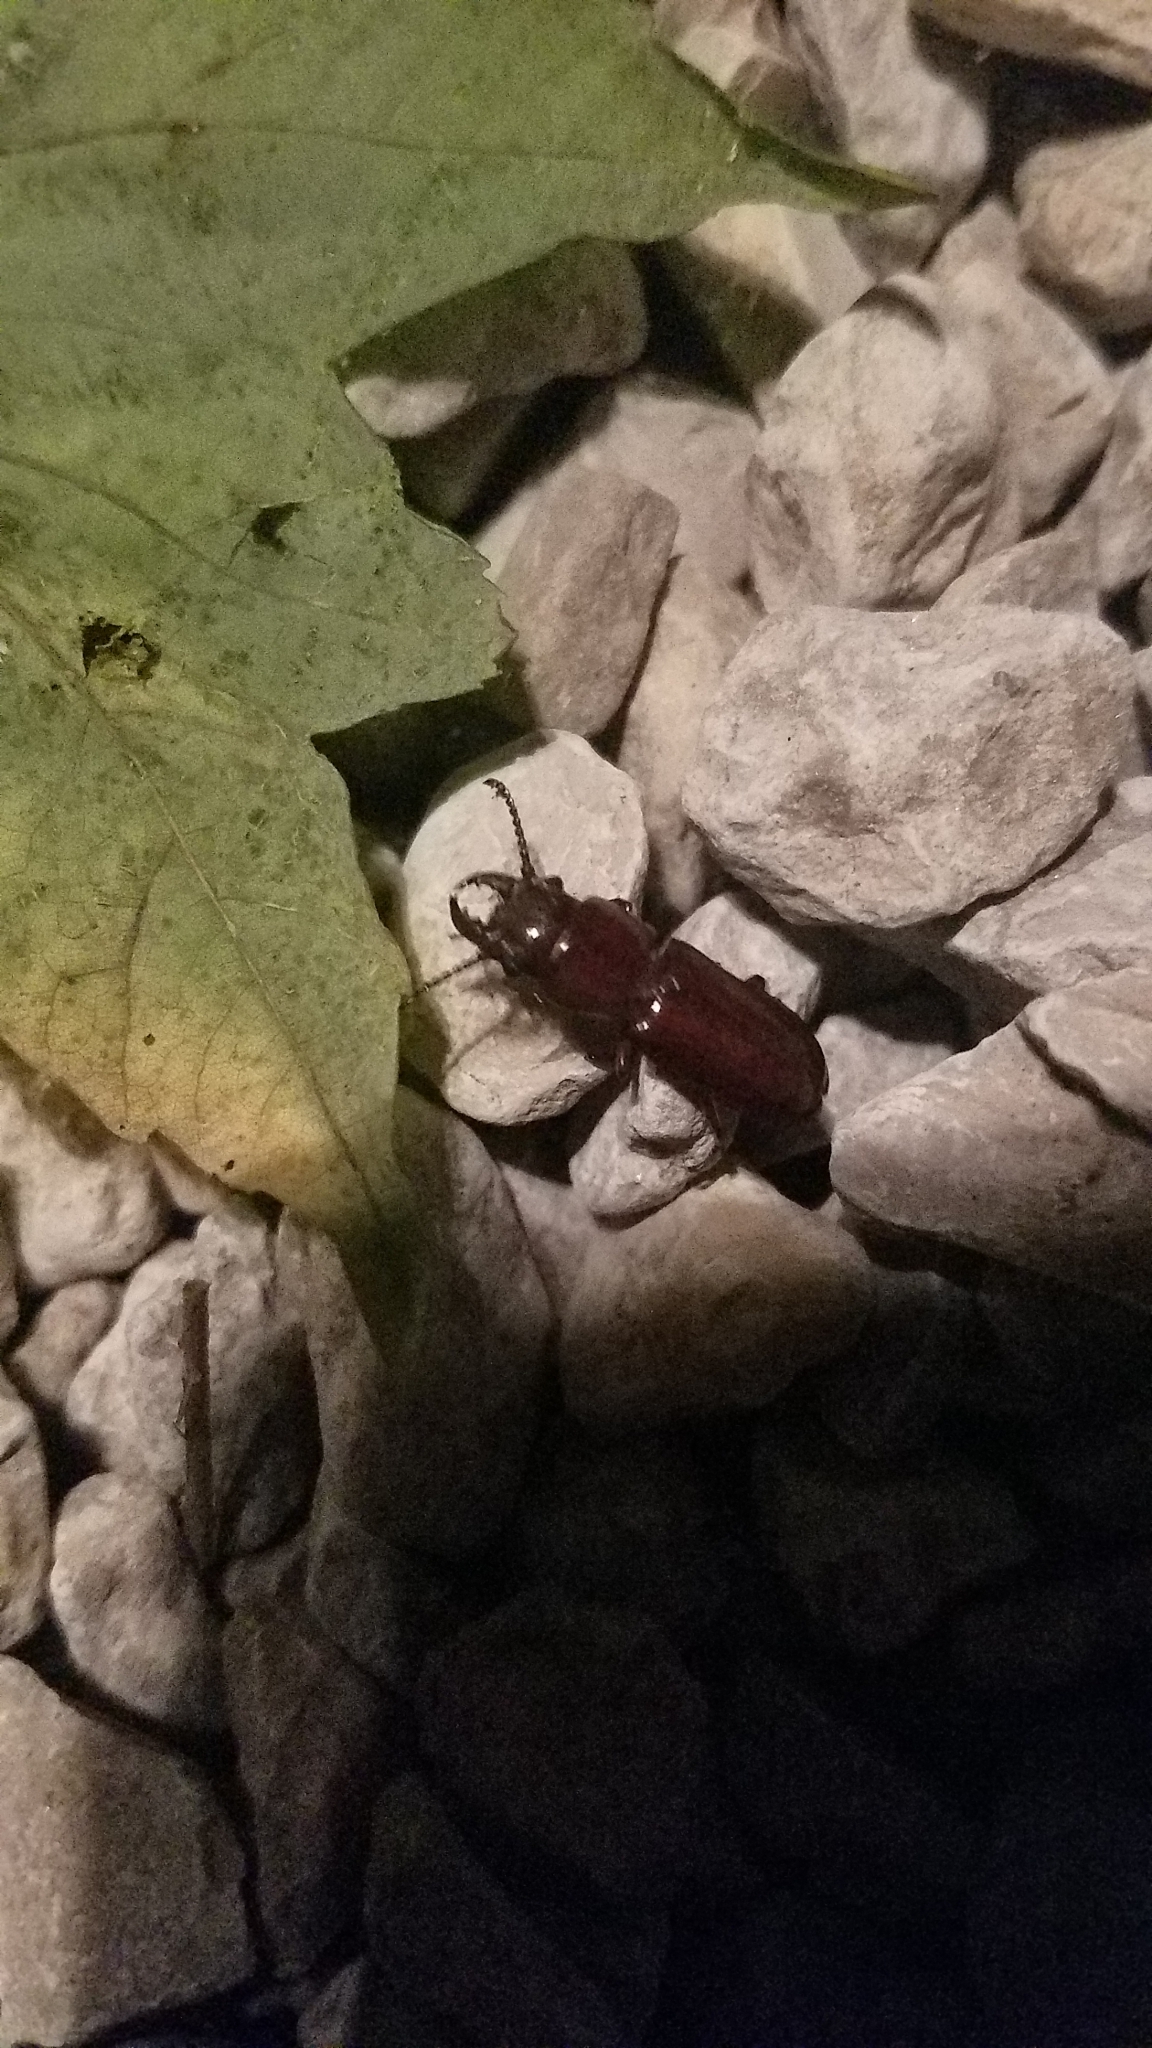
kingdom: Animalia
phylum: Arthropoda
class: Insecta
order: Coleoptera
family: Cerambycidae
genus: Neandra
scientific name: Neandra brunnea
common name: Pole borer
